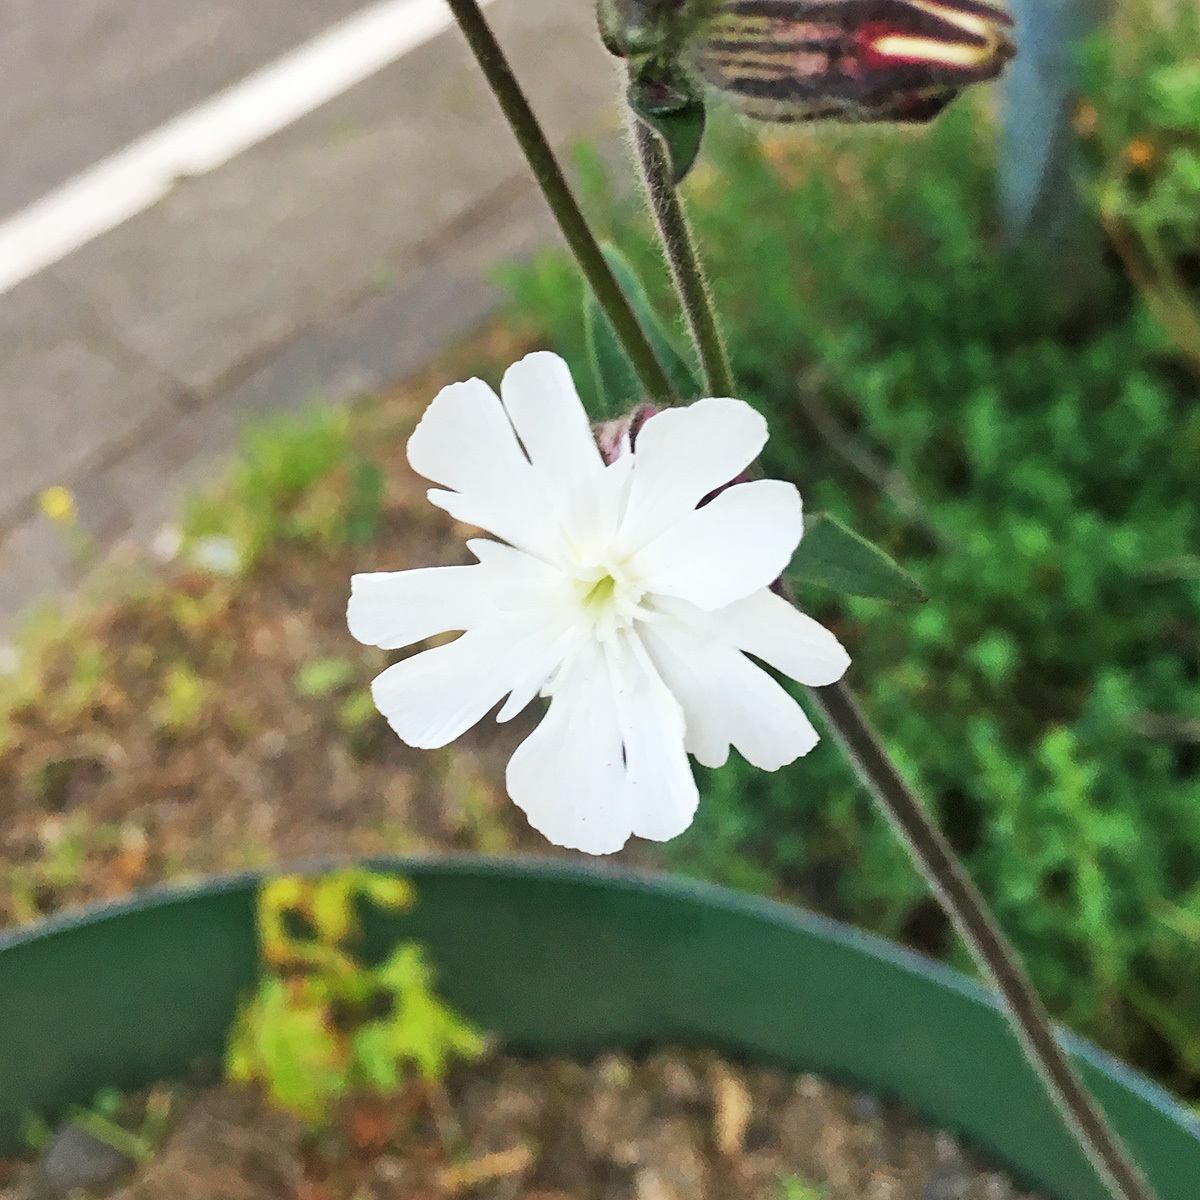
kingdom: Plantae
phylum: Tracheophyta
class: Magnoliopsida
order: Caryophyllales
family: Caryophyllaceae
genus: Silene
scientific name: Silene latifolia
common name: White campion
